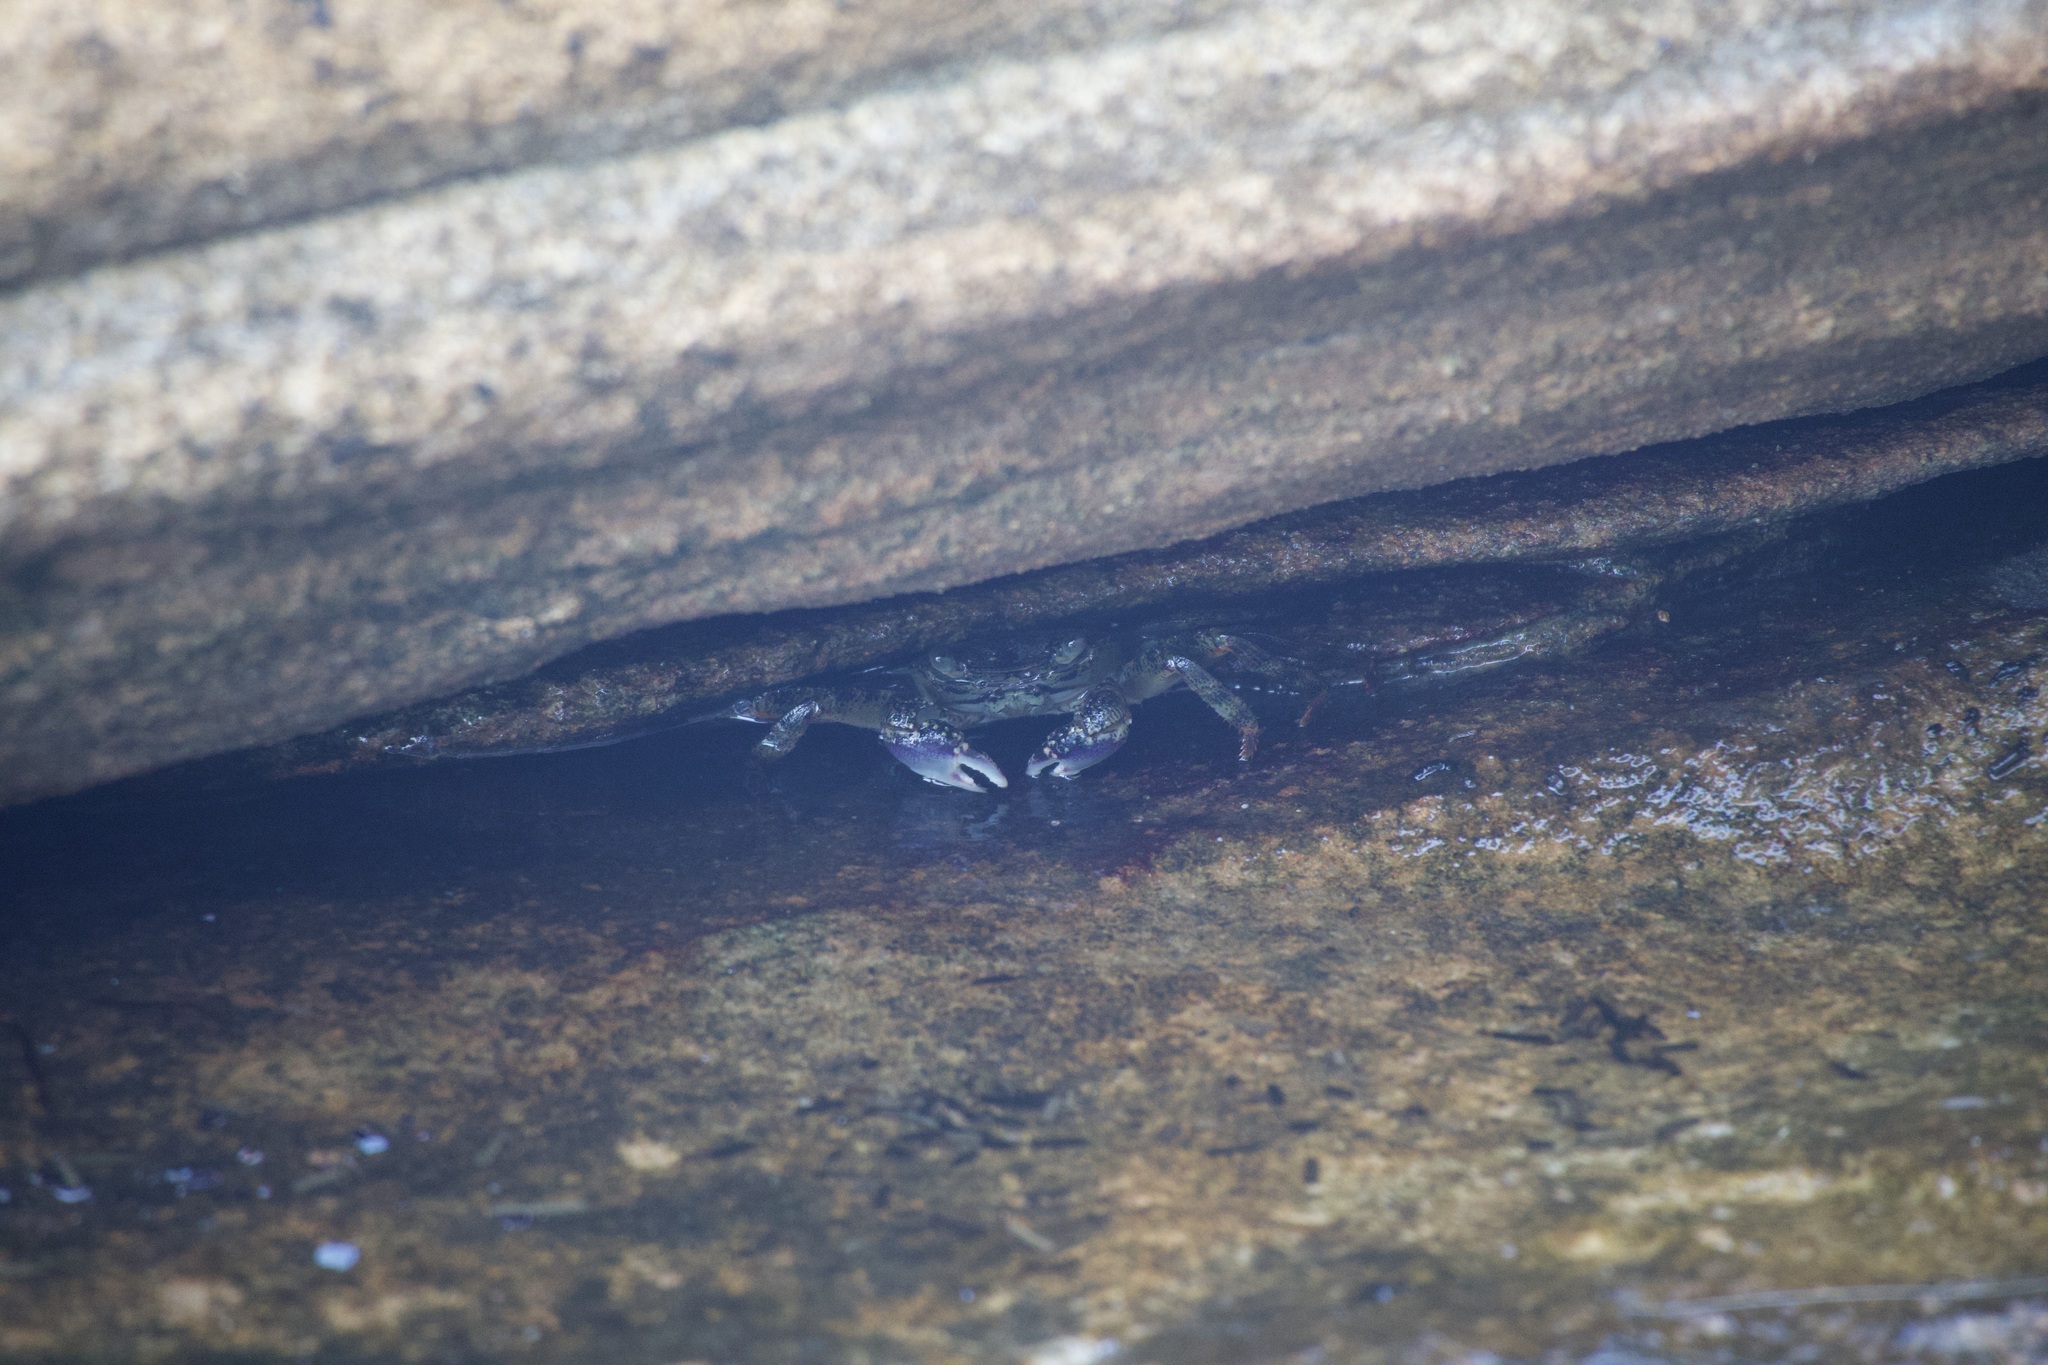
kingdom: Animalia
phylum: Arthropoda
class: Malacostraca
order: Decapoda
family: Grapsidae
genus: Leptograpsus
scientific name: Leptograpsus variegatus
